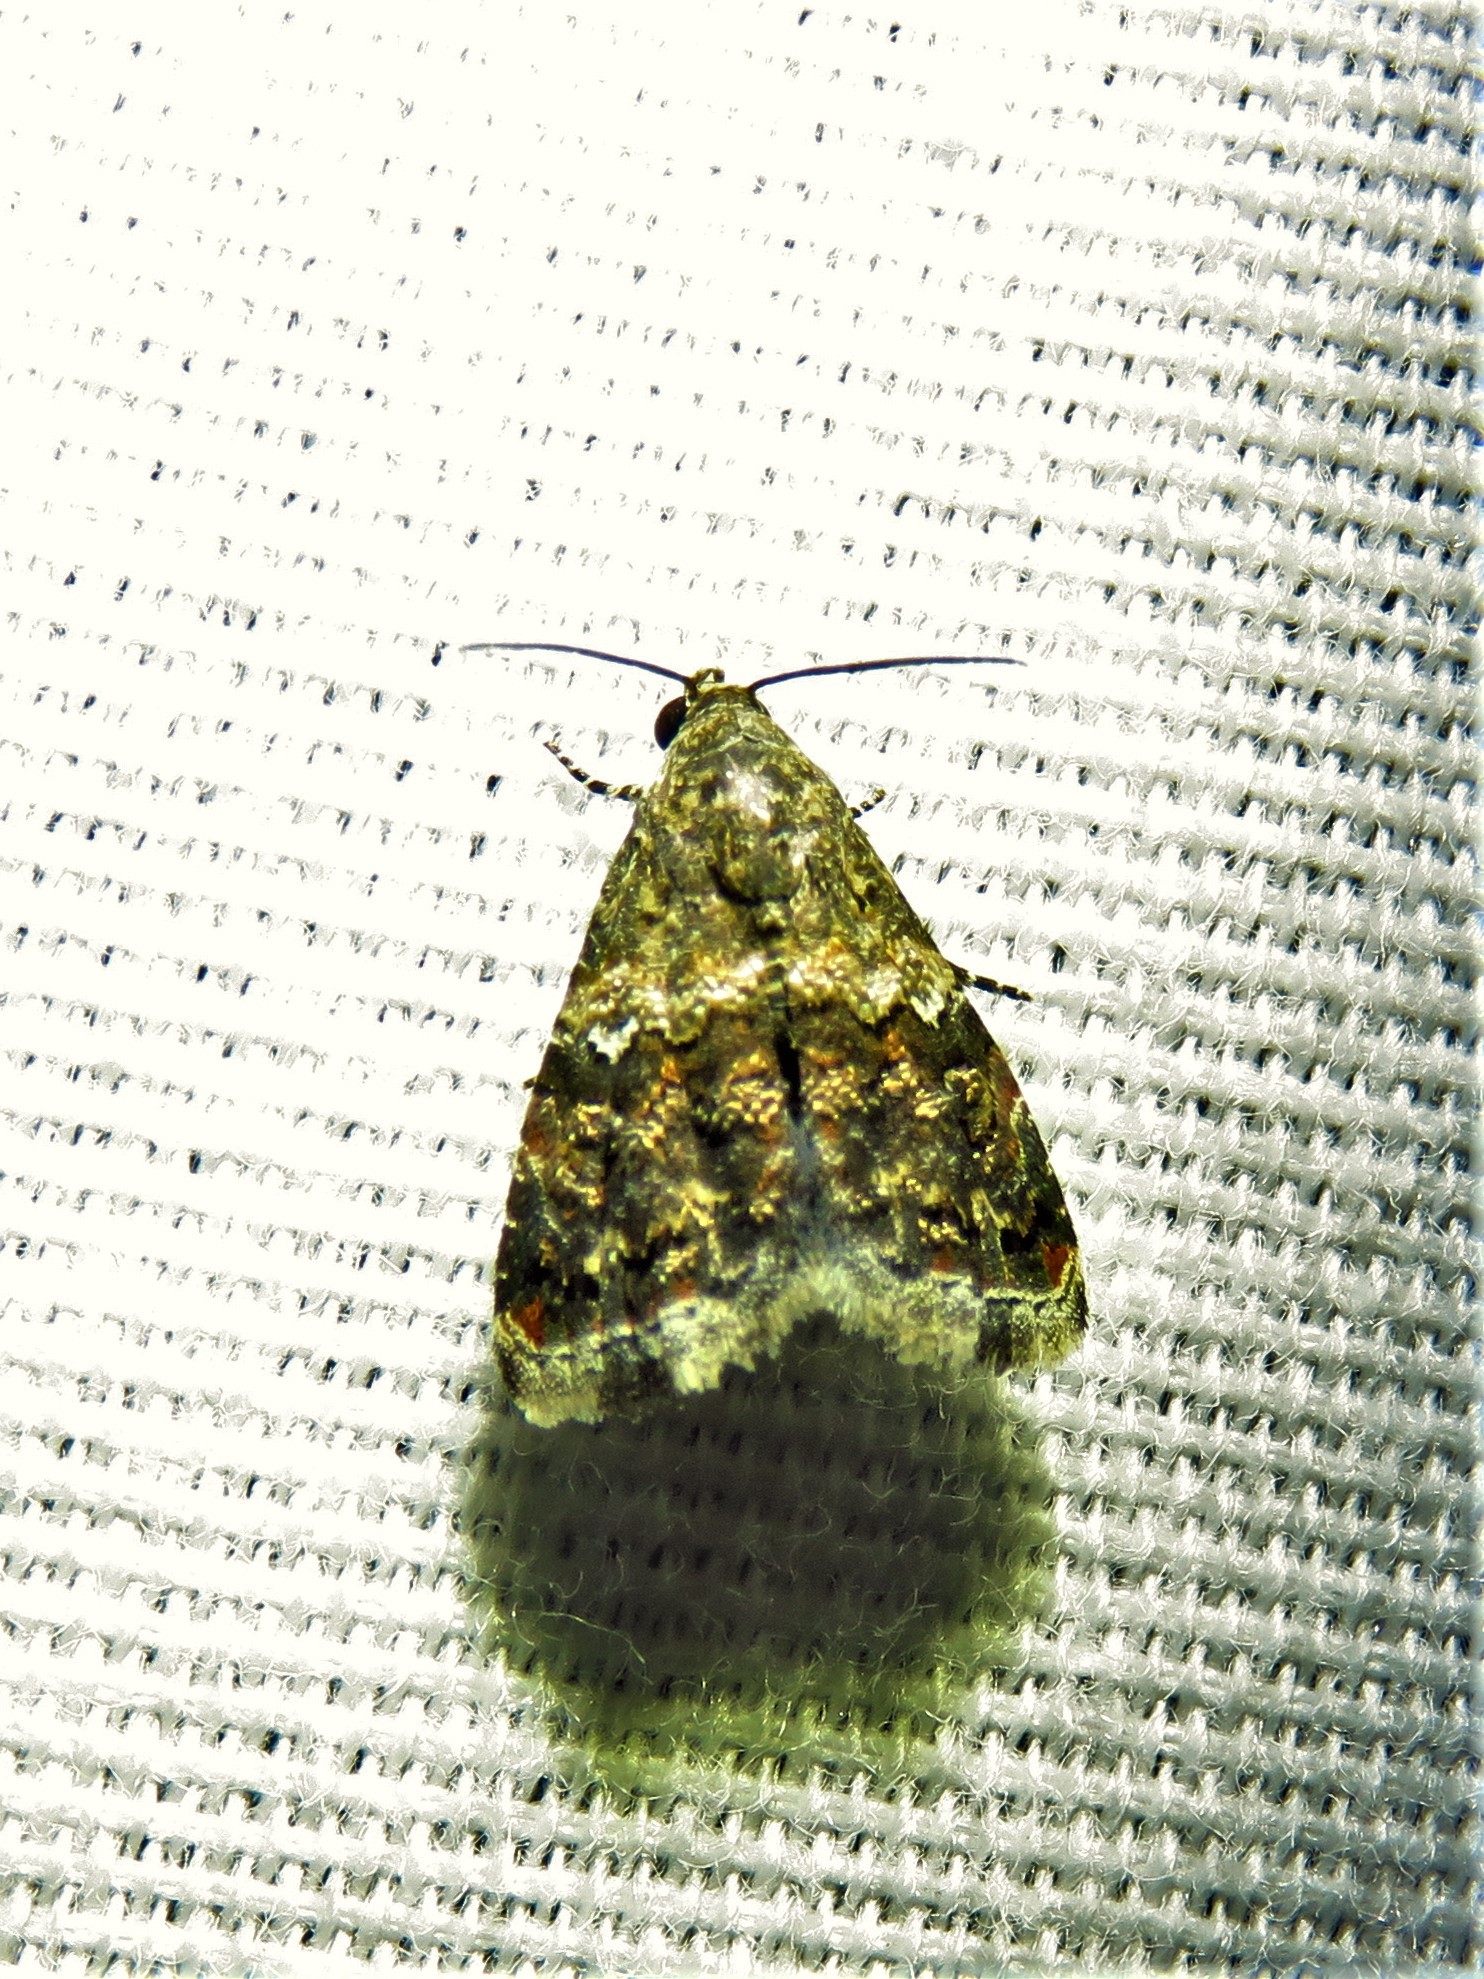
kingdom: Animalia
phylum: Arthropoda
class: Insecta
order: Lepidoptera
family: Noctuidae
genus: Tripudia
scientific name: Tripudia luxuriosa
